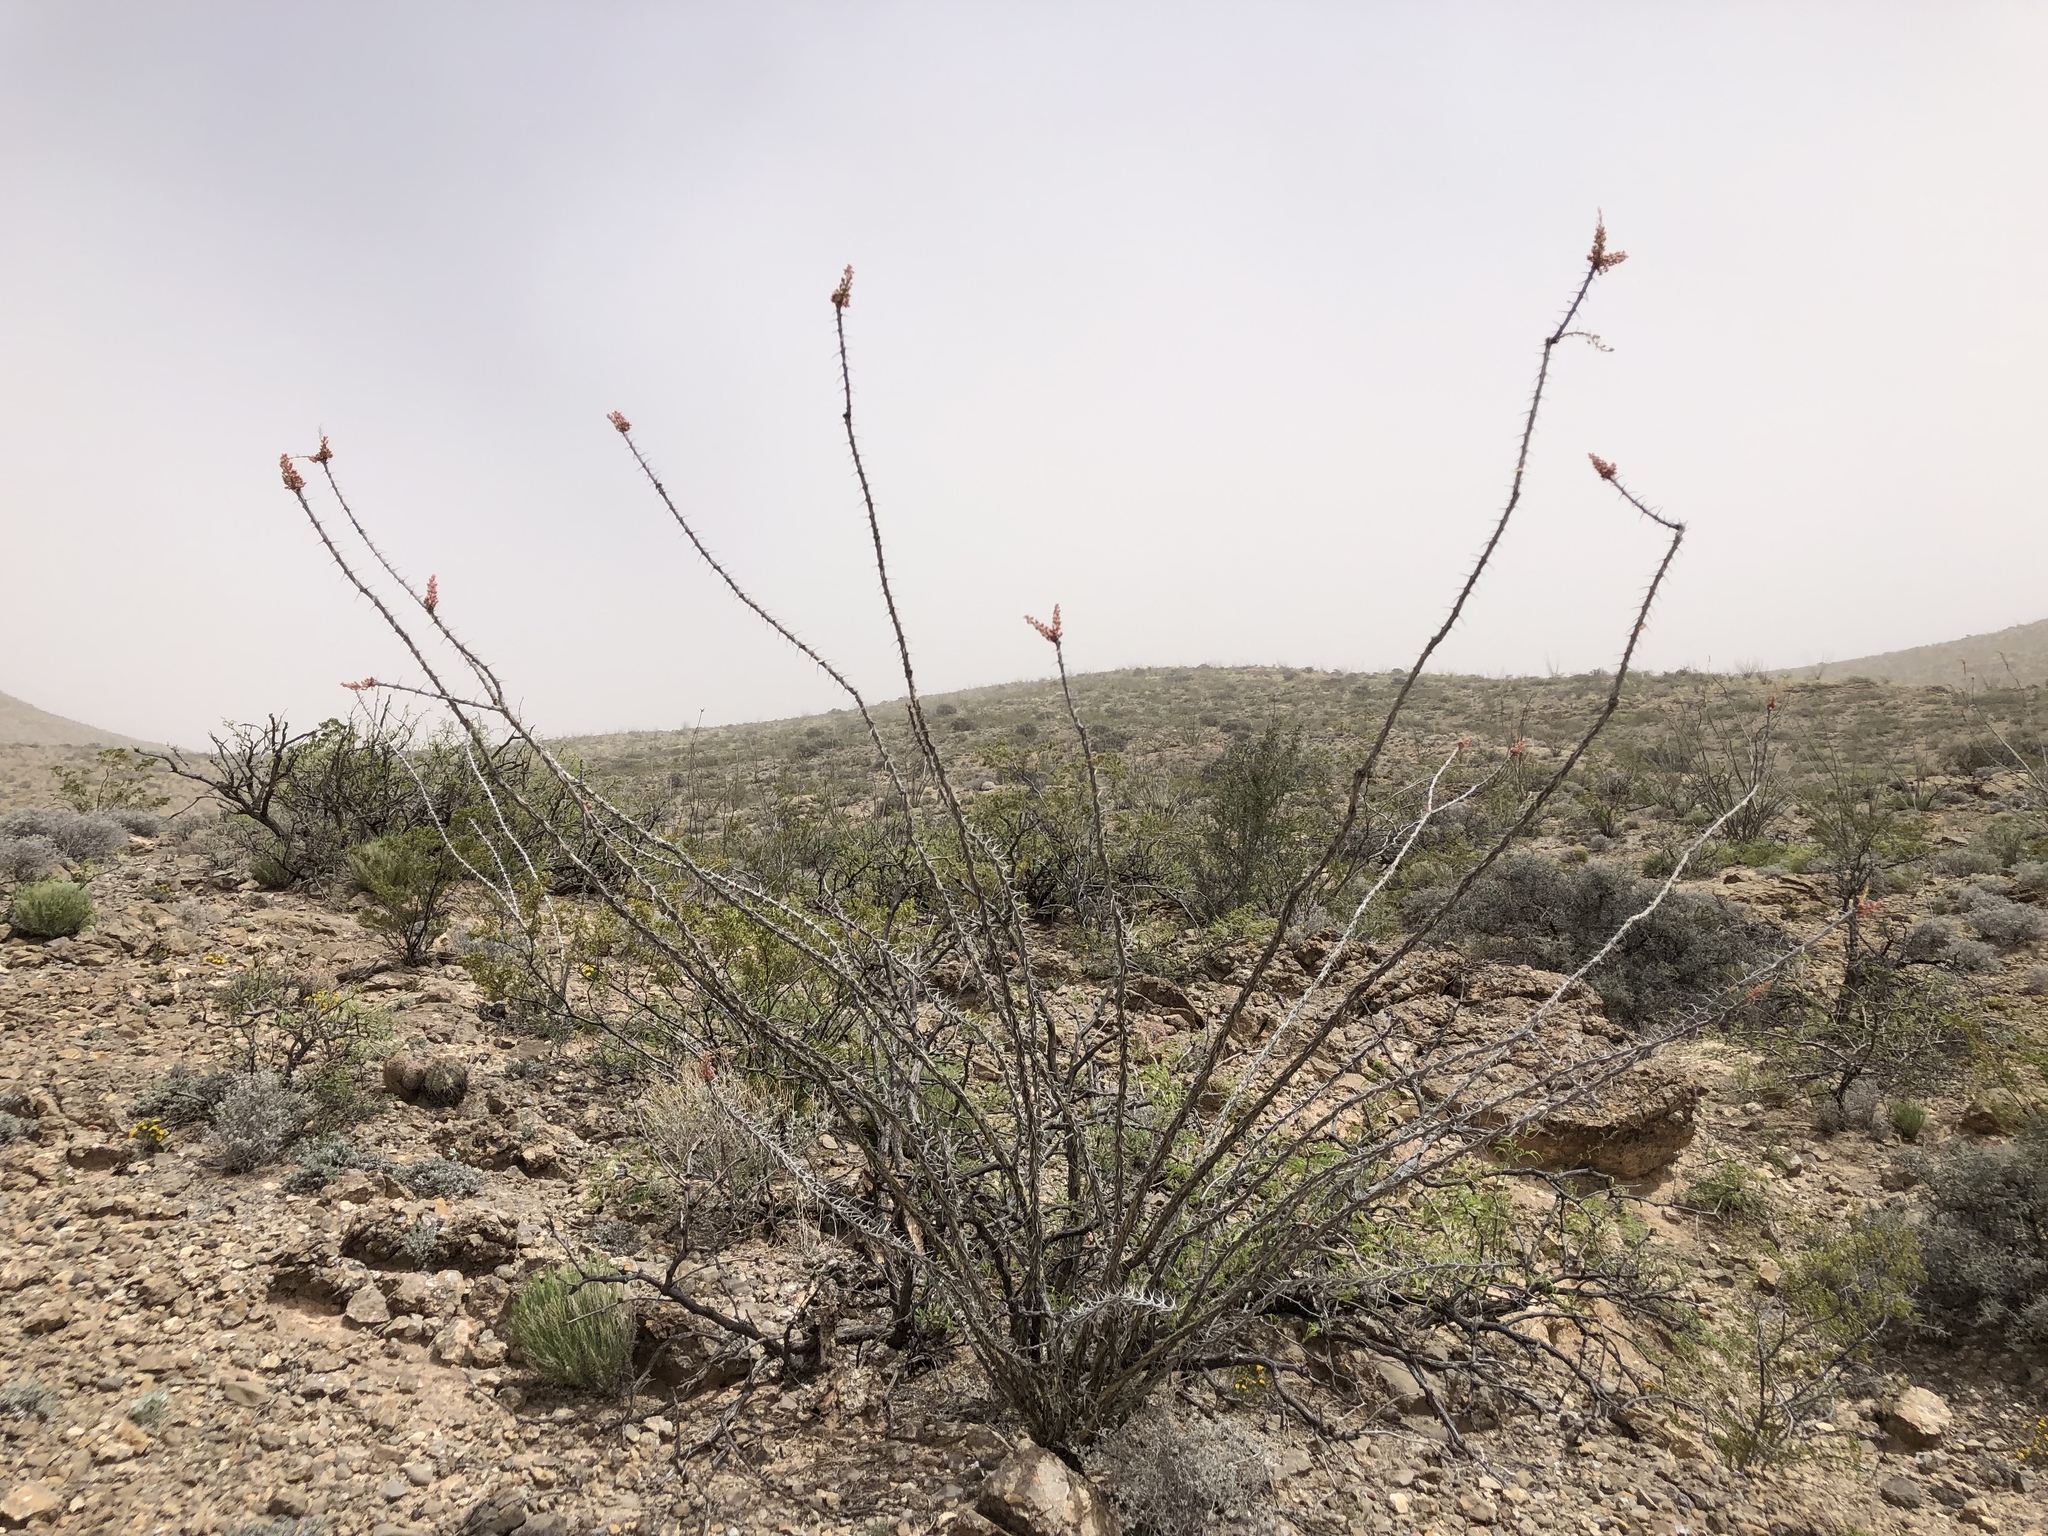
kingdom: Plantae
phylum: Tracheophyta
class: Magnoliopsida
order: Ericales
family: Fouquieriaceae
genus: Fouquieria
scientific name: Fouquieria splendens
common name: Vine-cactus
